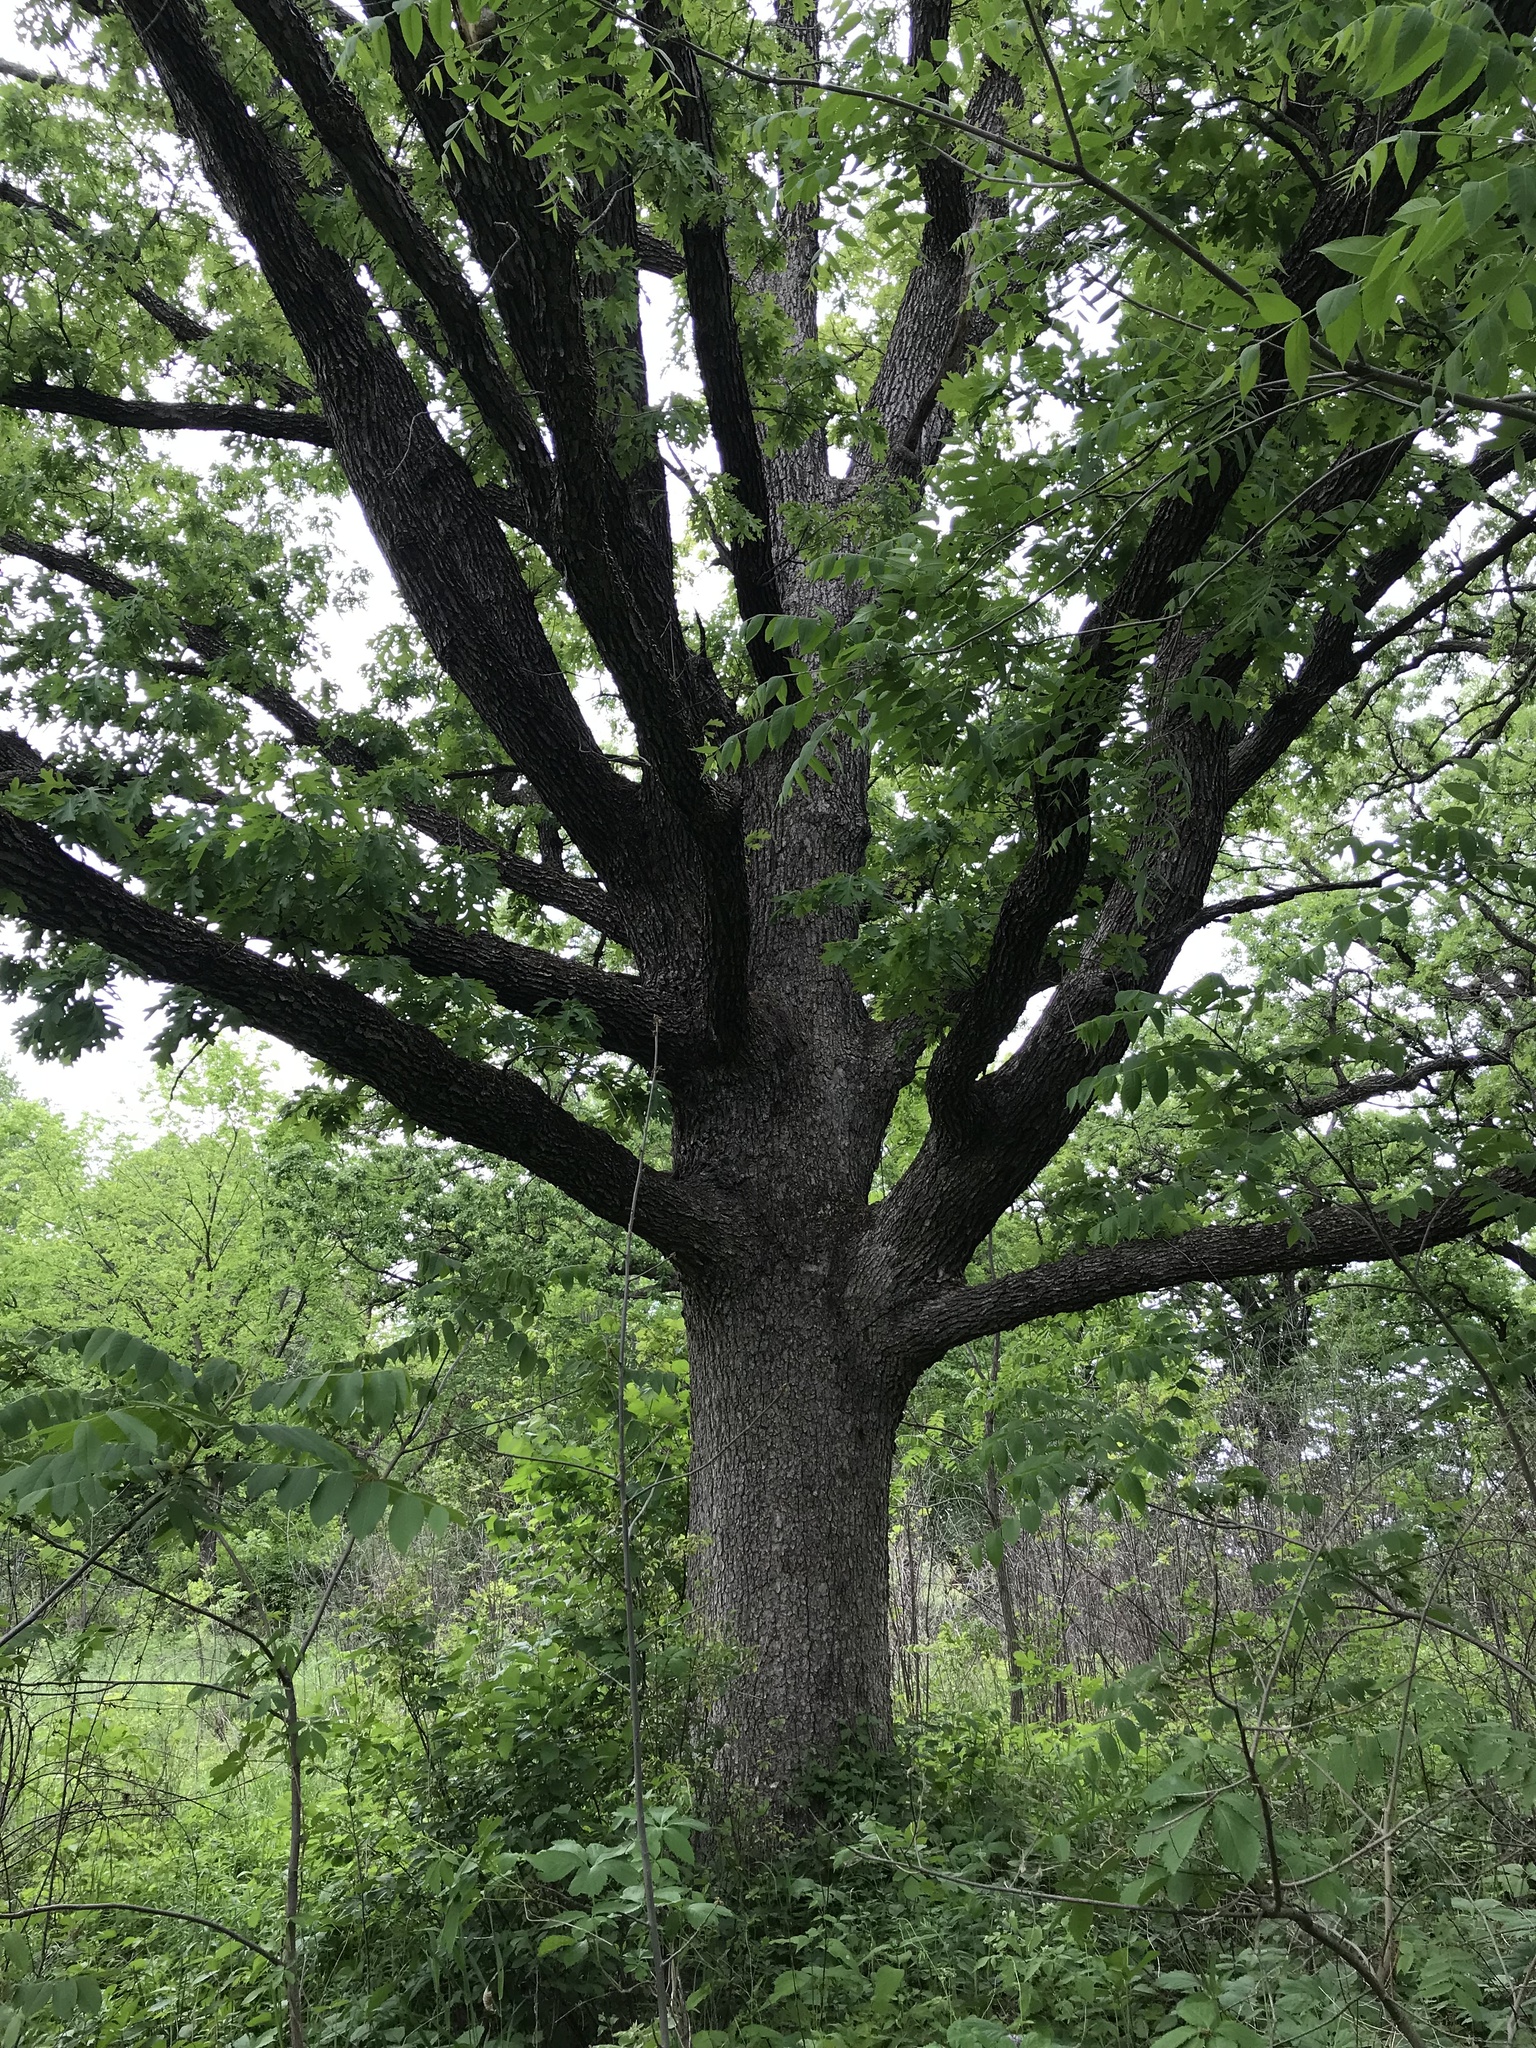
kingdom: Plantae
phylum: Tracheophyta
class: Magnoliopsida
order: Fagales
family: Fagaceae
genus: Quercus
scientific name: Quercus alba
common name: White oak
